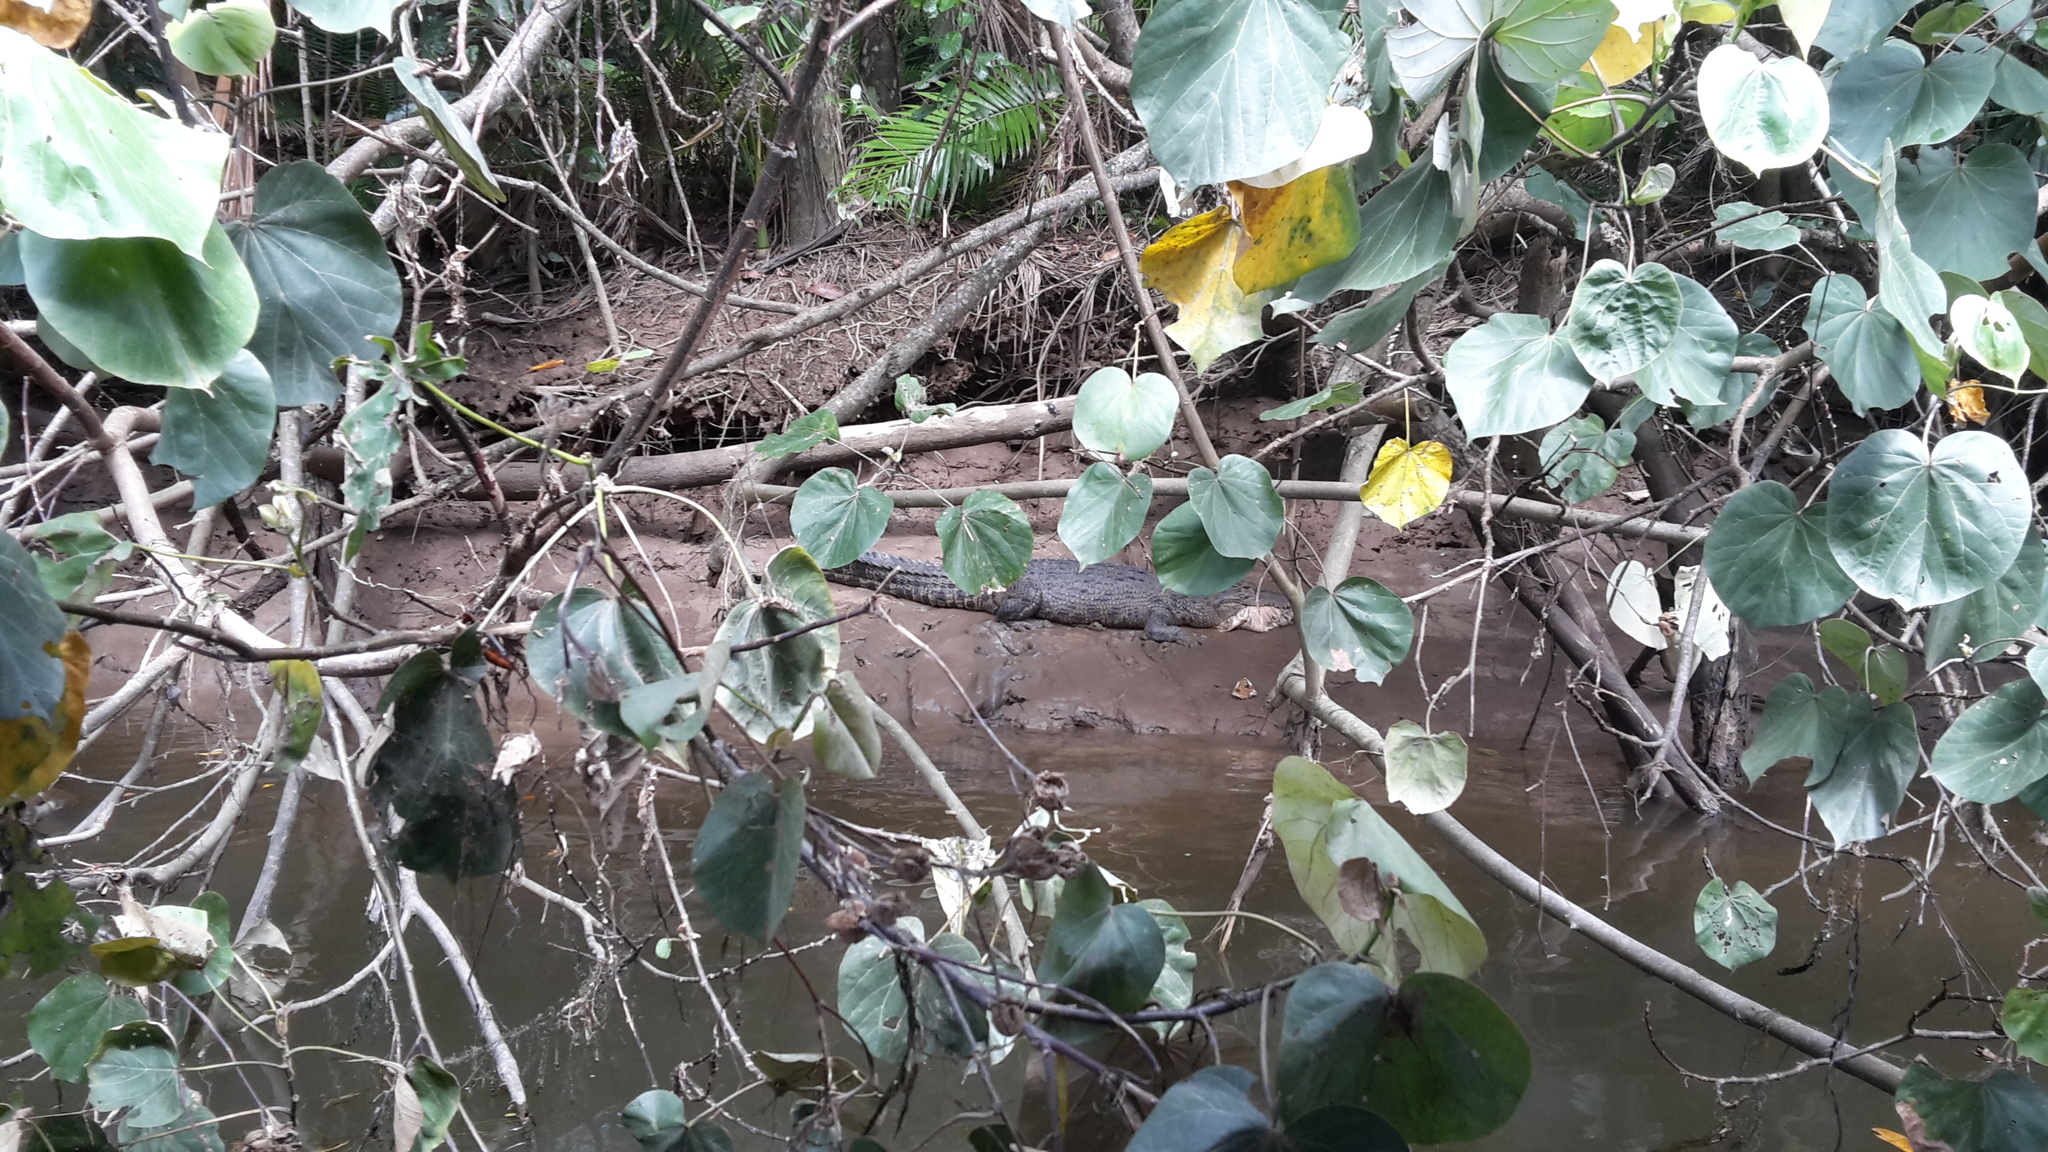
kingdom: Animalia
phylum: Chordata
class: Crocodylia
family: Crocodylidae
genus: Crocodylus
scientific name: Crocodylus porosus
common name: Saltwater crocodile
